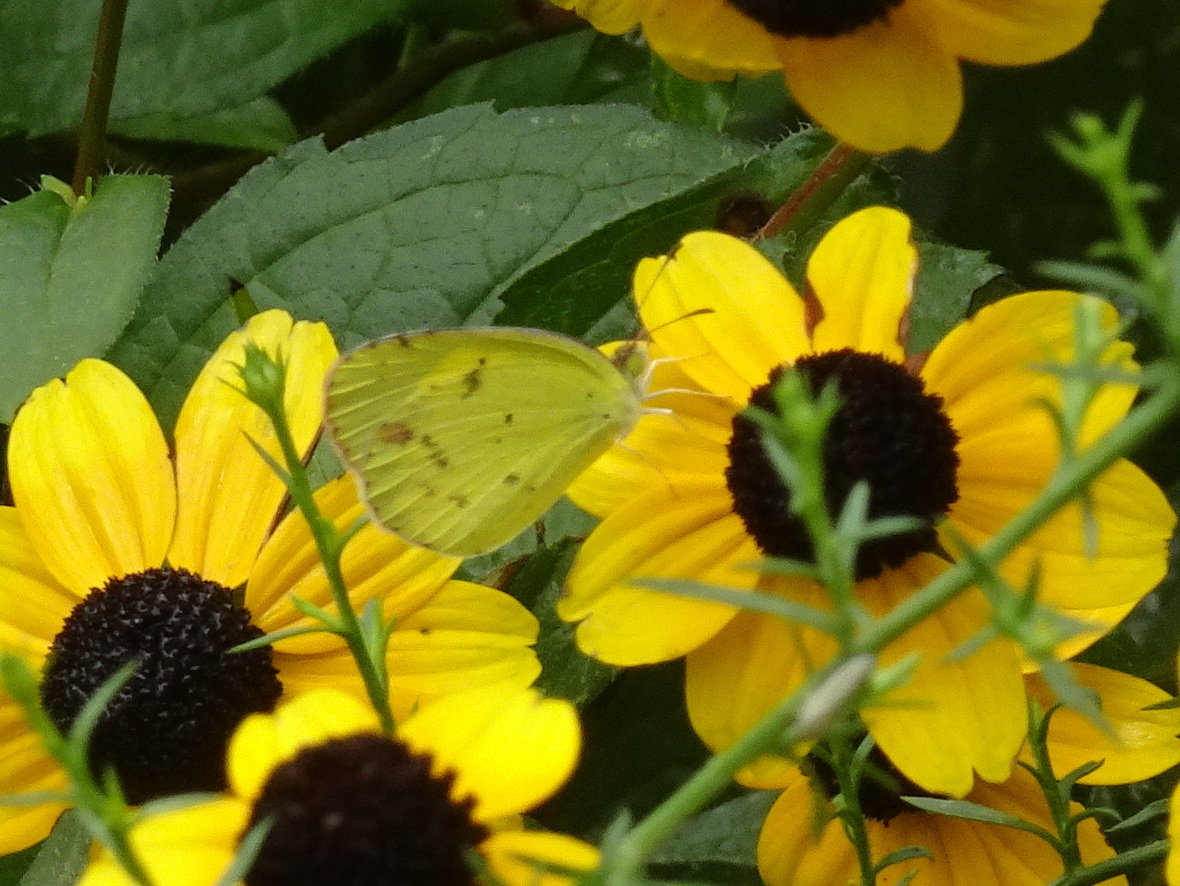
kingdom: Animalia
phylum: Arthropoda
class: Insecta
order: Lepidoptera
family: Pieridae
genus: Pyrisitia
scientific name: Pyrisitia lisa
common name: Little yellow
